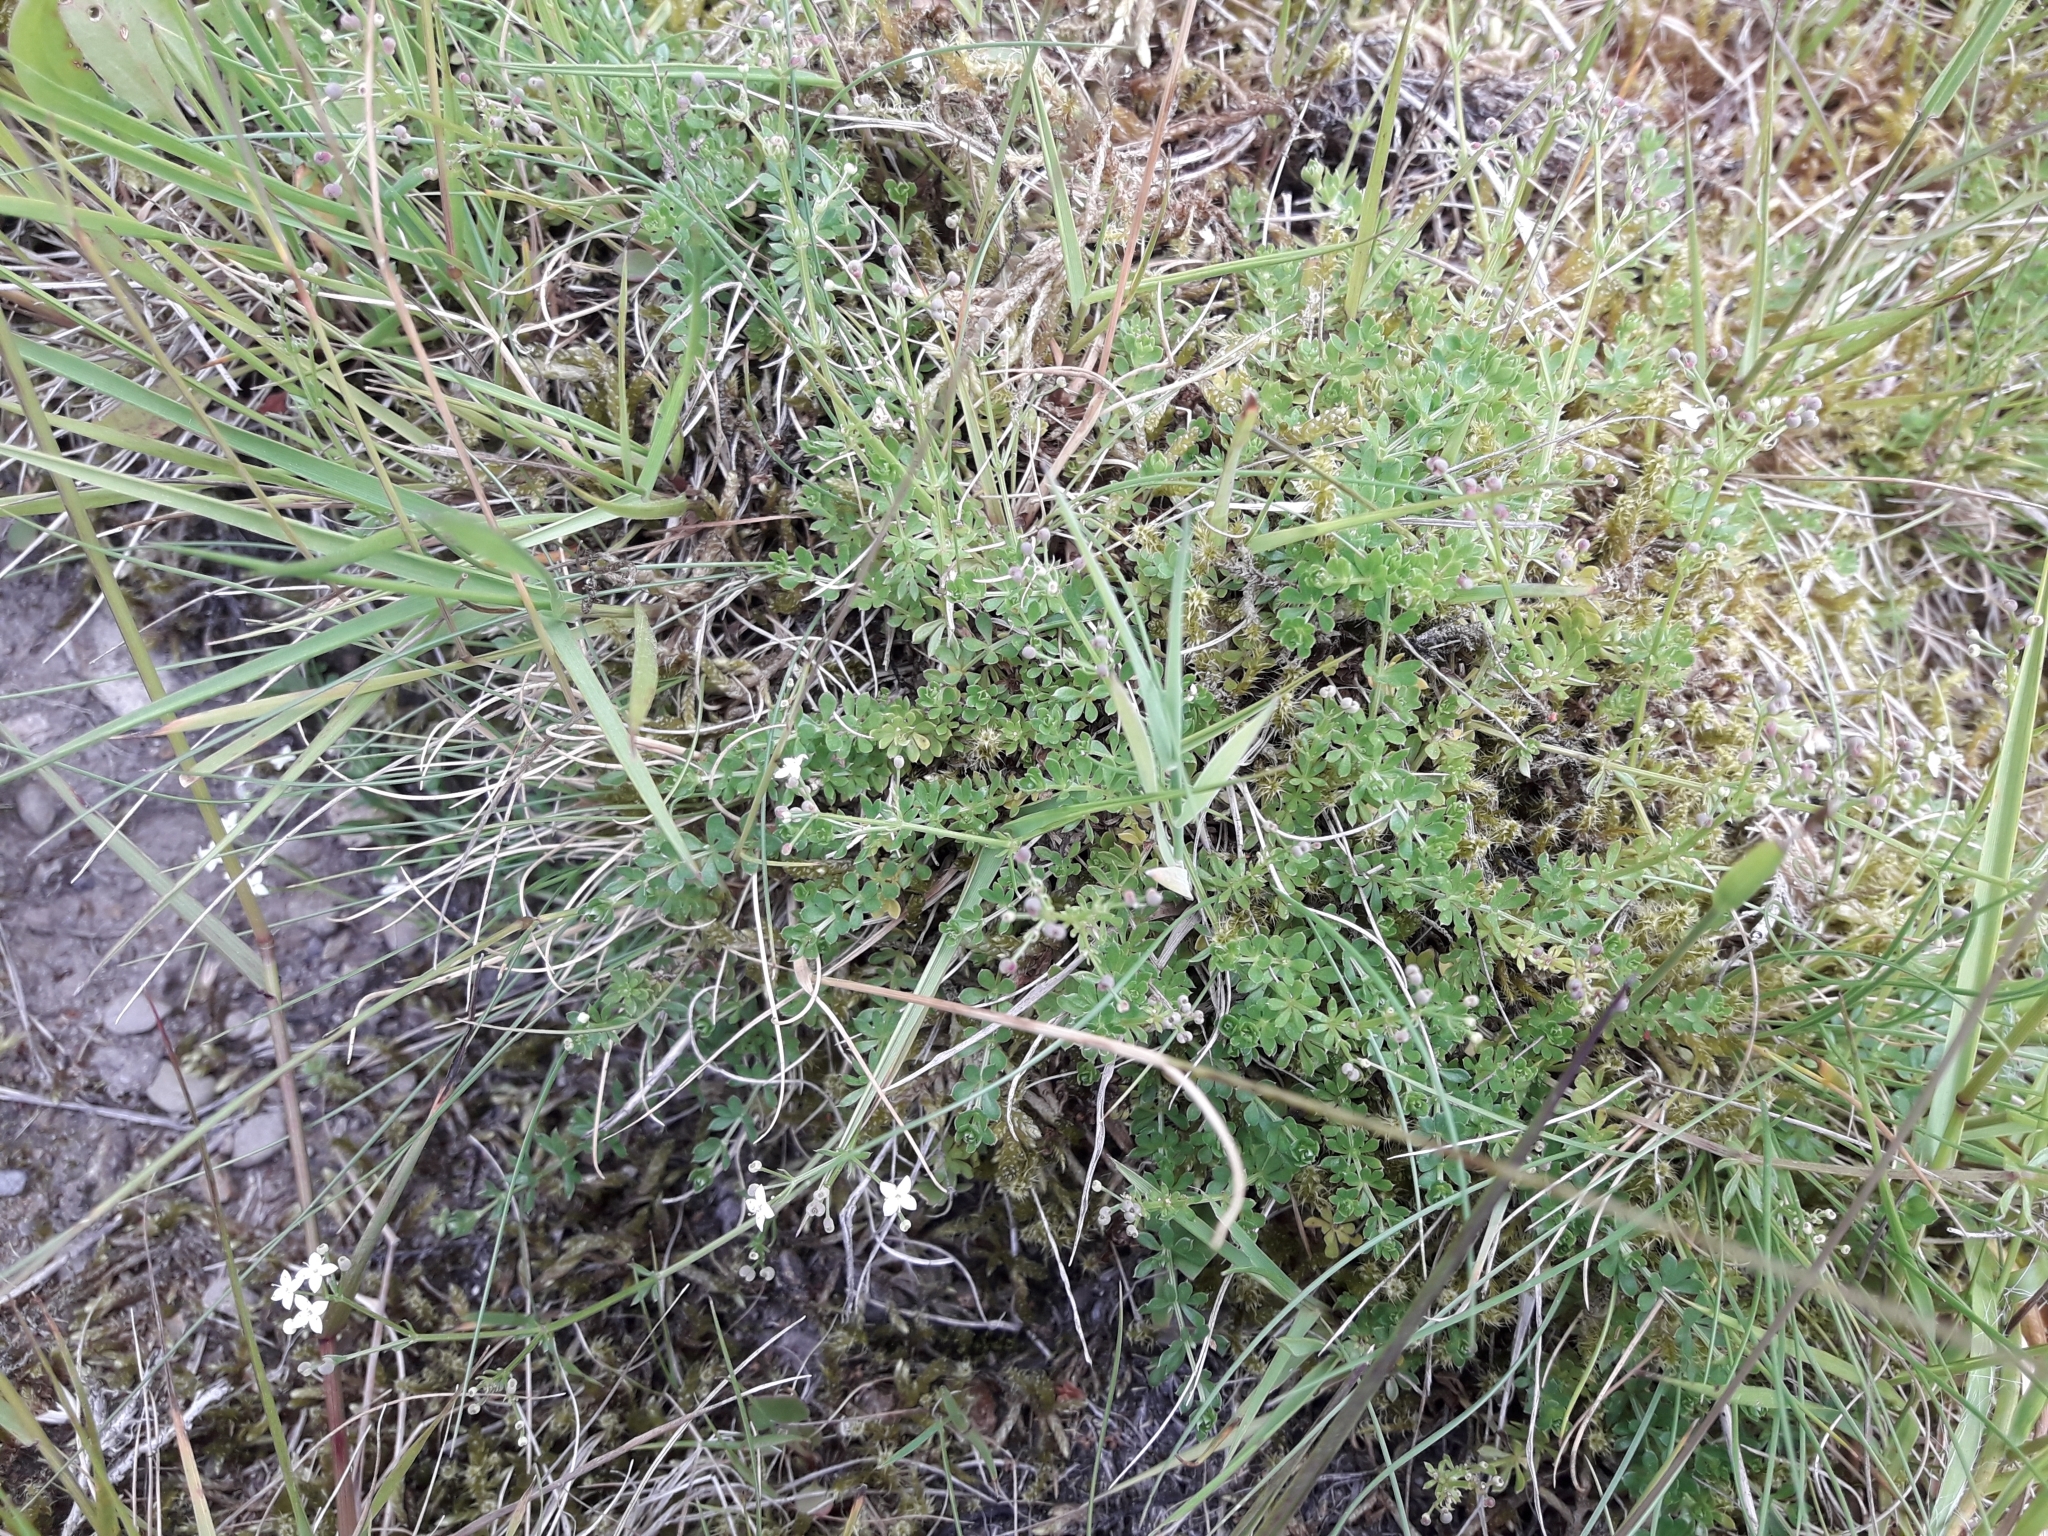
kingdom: Plantae
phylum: Tracheophyta
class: Magnoliopsida
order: Gentianales
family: Rubiaceae
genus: Galium
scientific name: Galium saxatile
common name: Heath bedstraw
